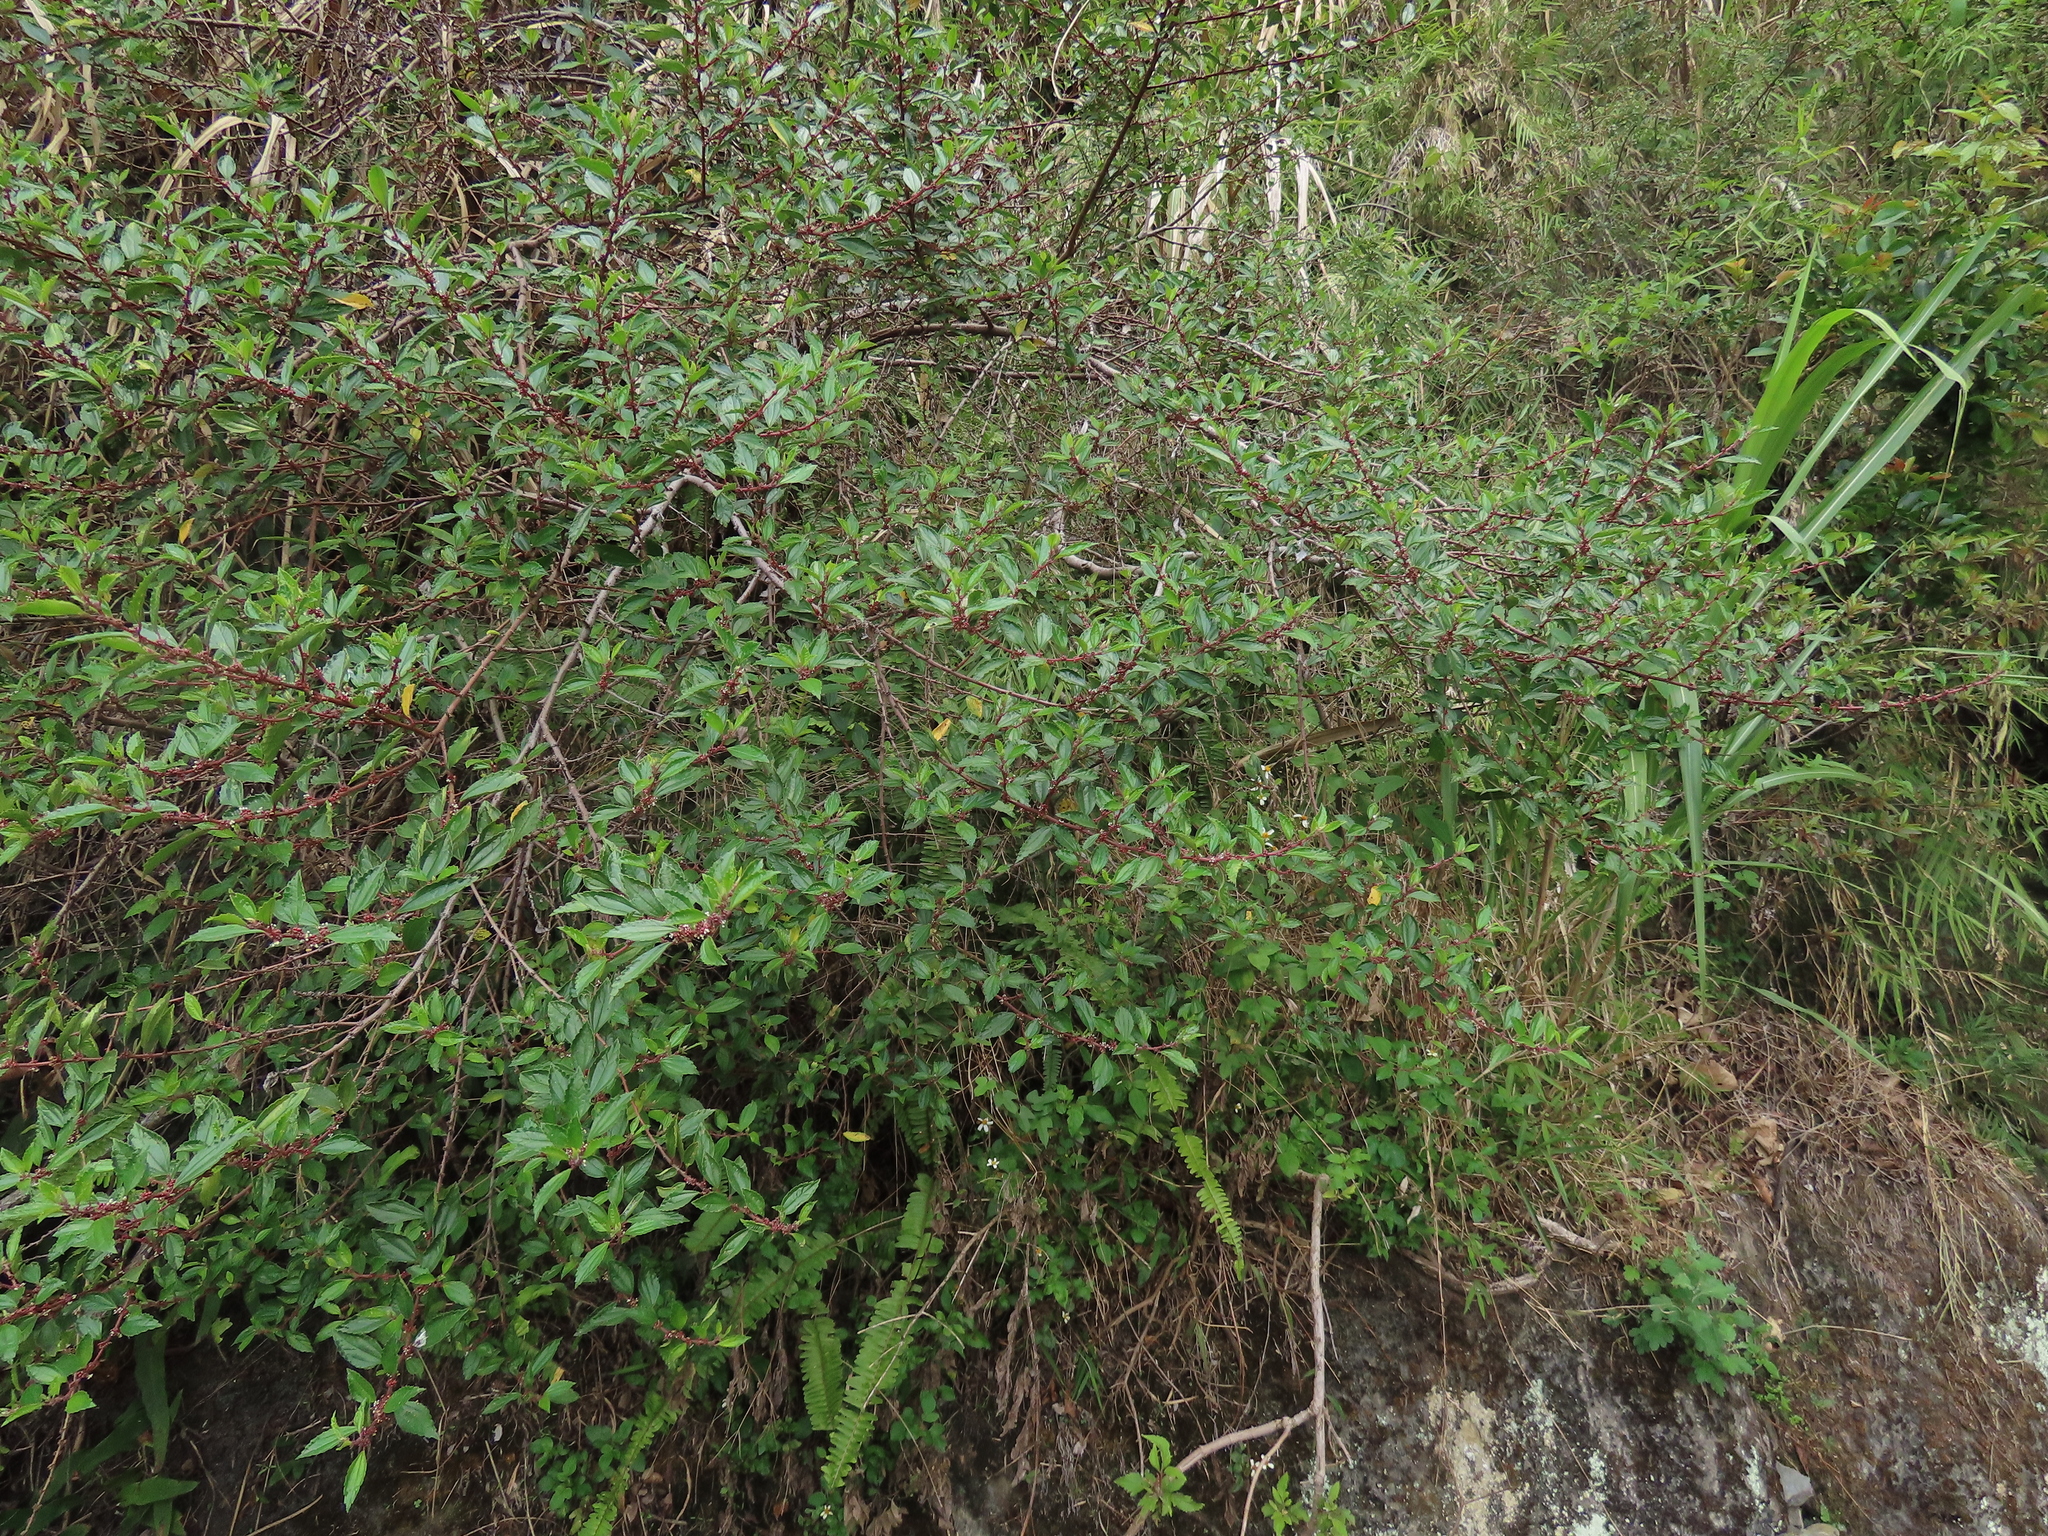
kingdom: Plantae
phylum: Tracheophyta
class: Magnoliopsida
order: Rosales
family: Urticaceae
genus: Pouzolzia
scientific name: Pouzolzia sanguinea
